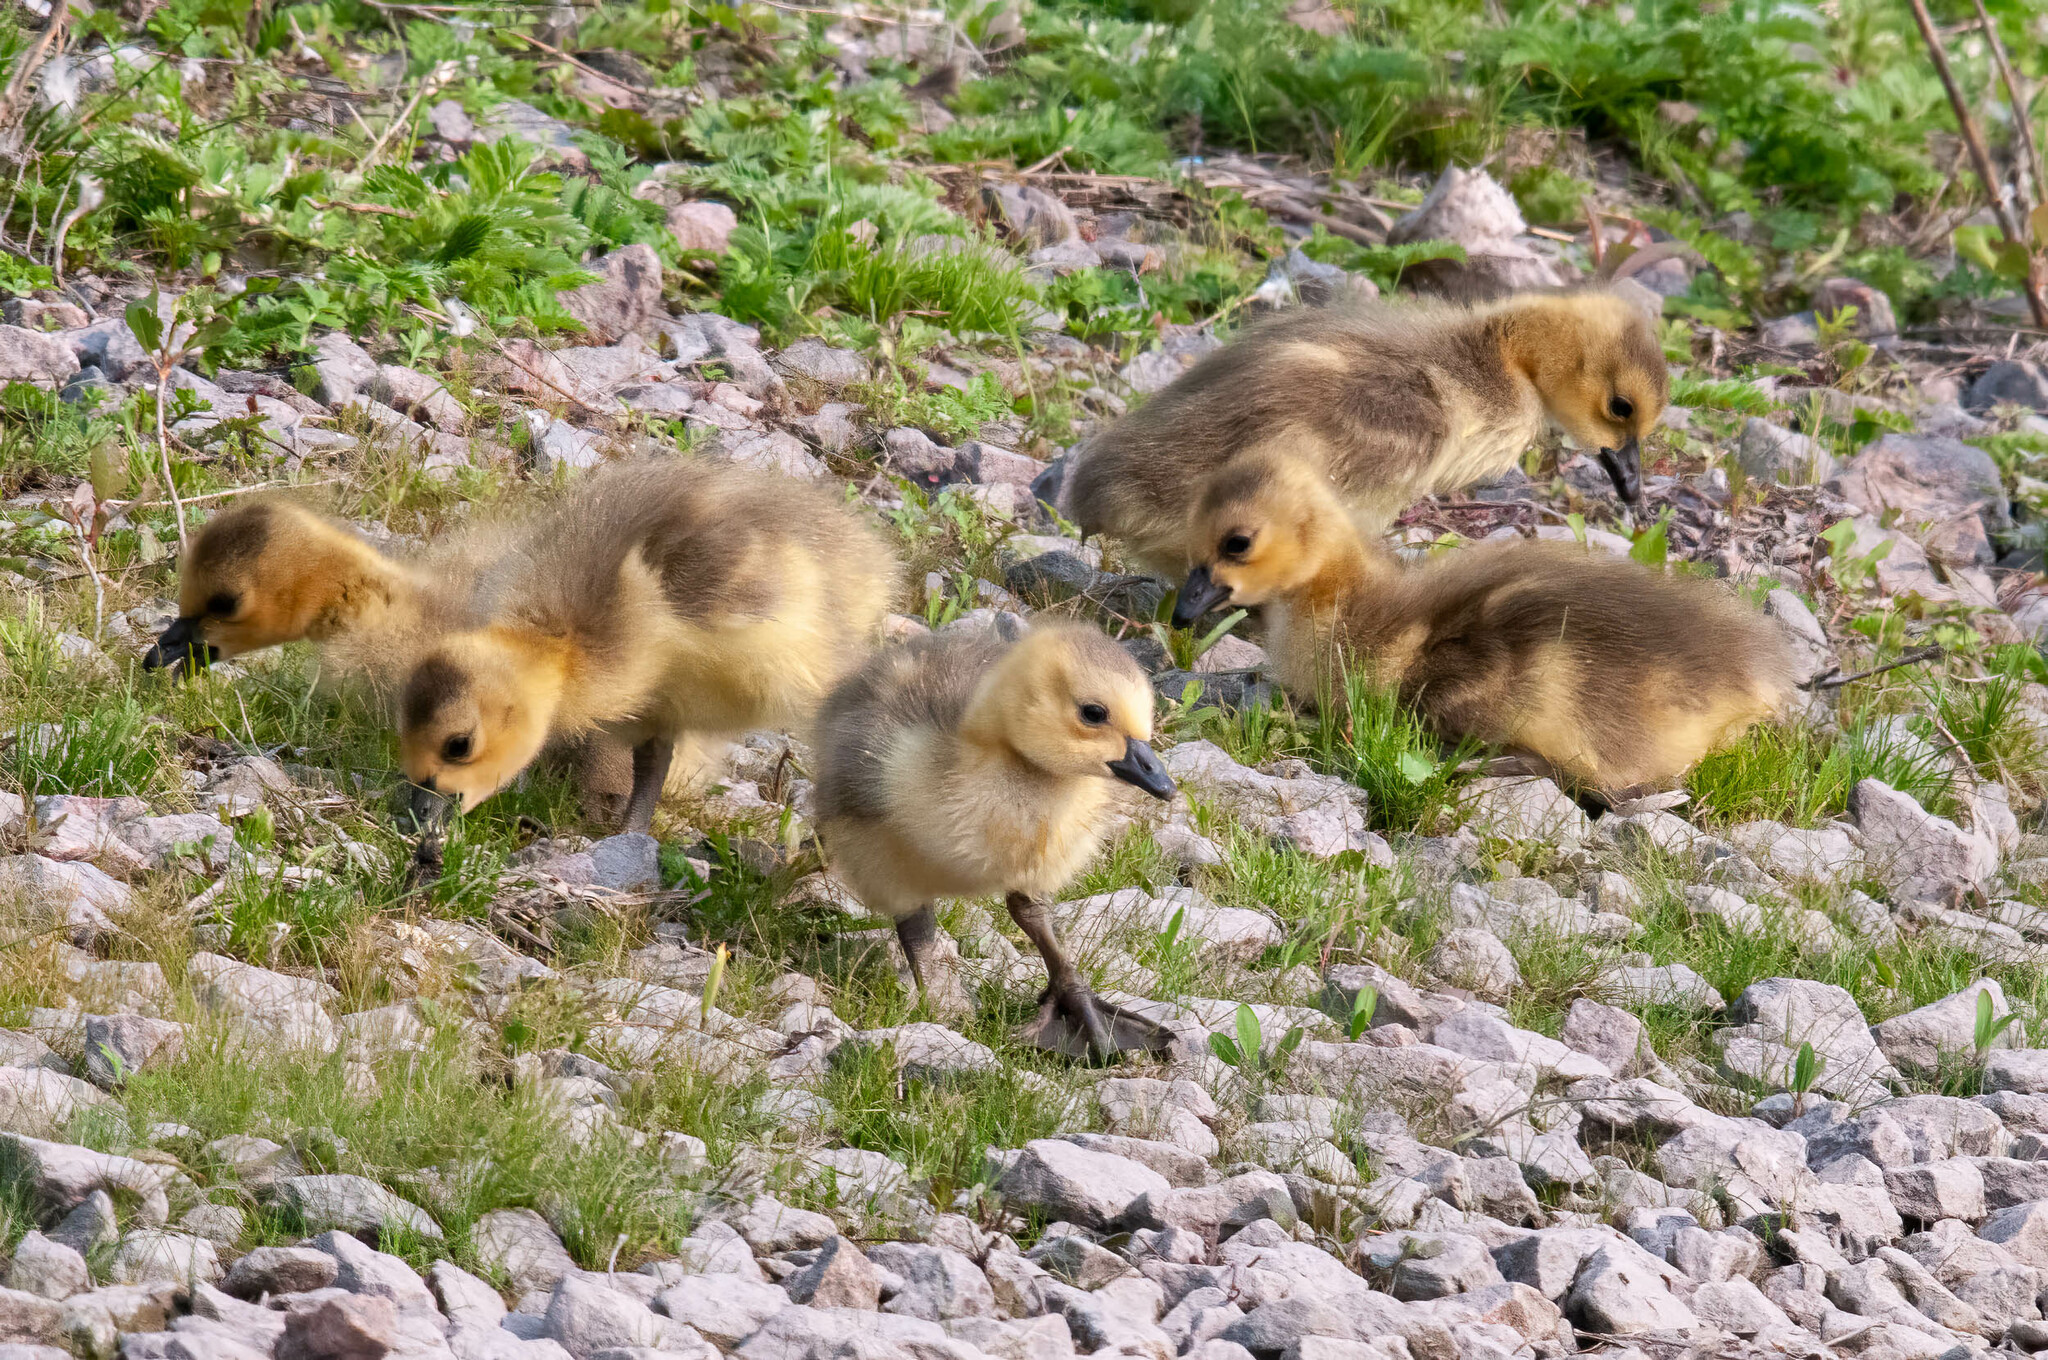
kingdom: Animalia
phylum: Chordata
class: Aves
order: Anseriformes
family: Anatidae
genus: Branta
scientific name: Branta canadensis
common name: Canada goose
